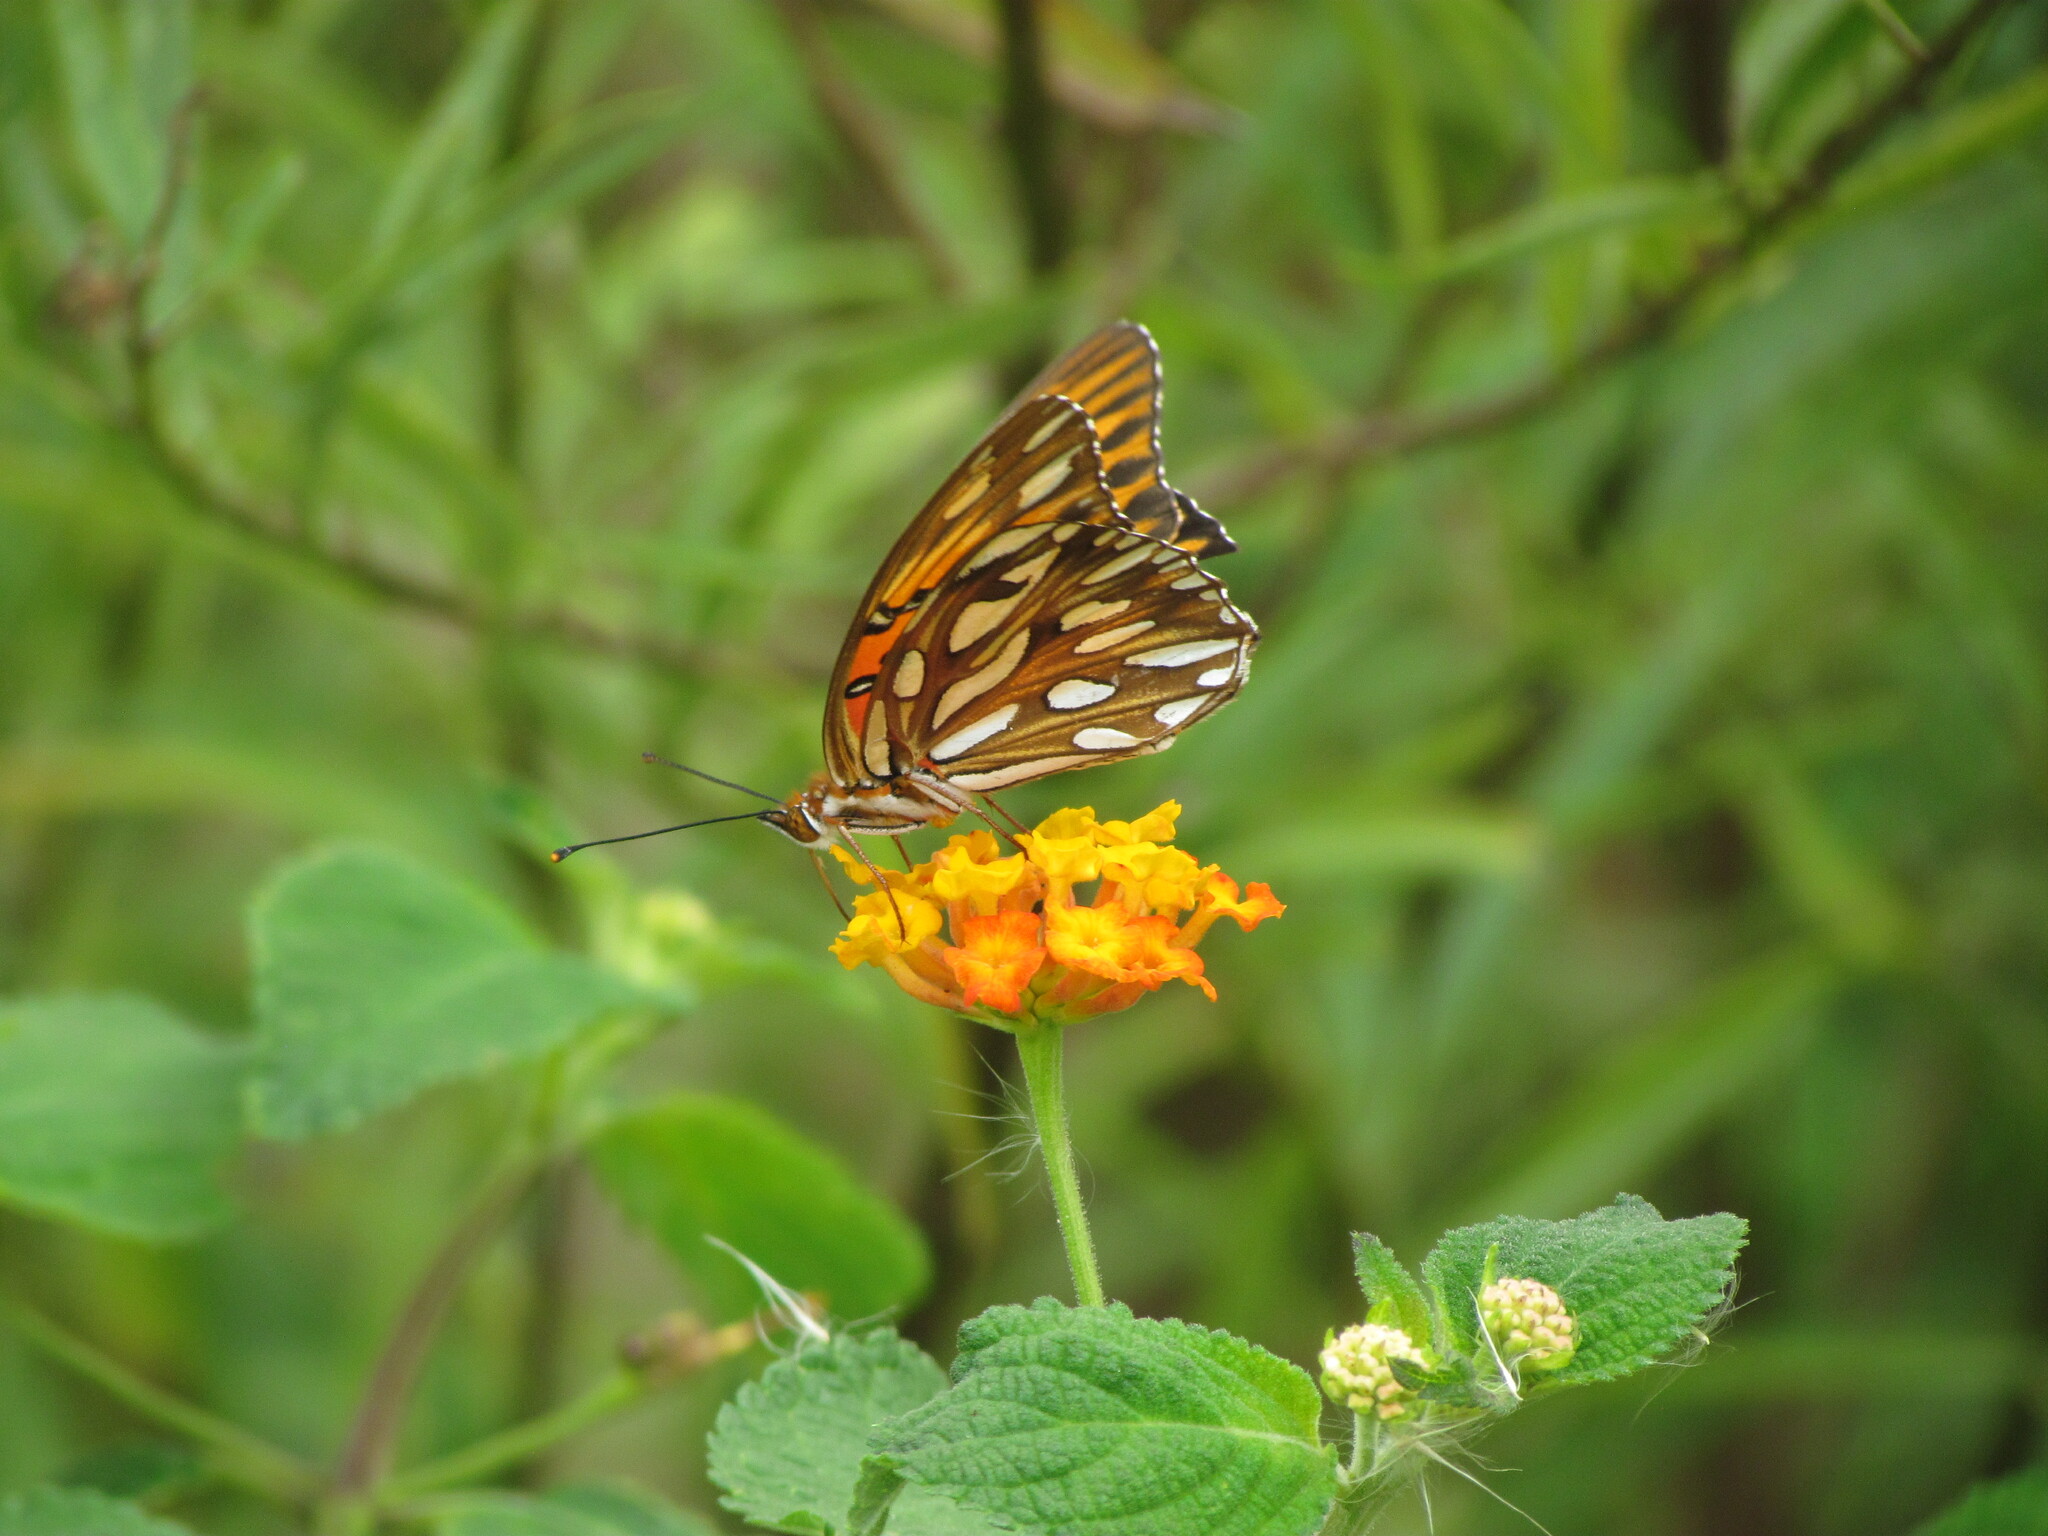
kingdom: Animalia
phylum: Arthropoda
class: Insecta
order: Lepidoptera
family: Nymphalidae
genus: Dione
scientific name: Dione vanillae
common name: Gulf fritillary
